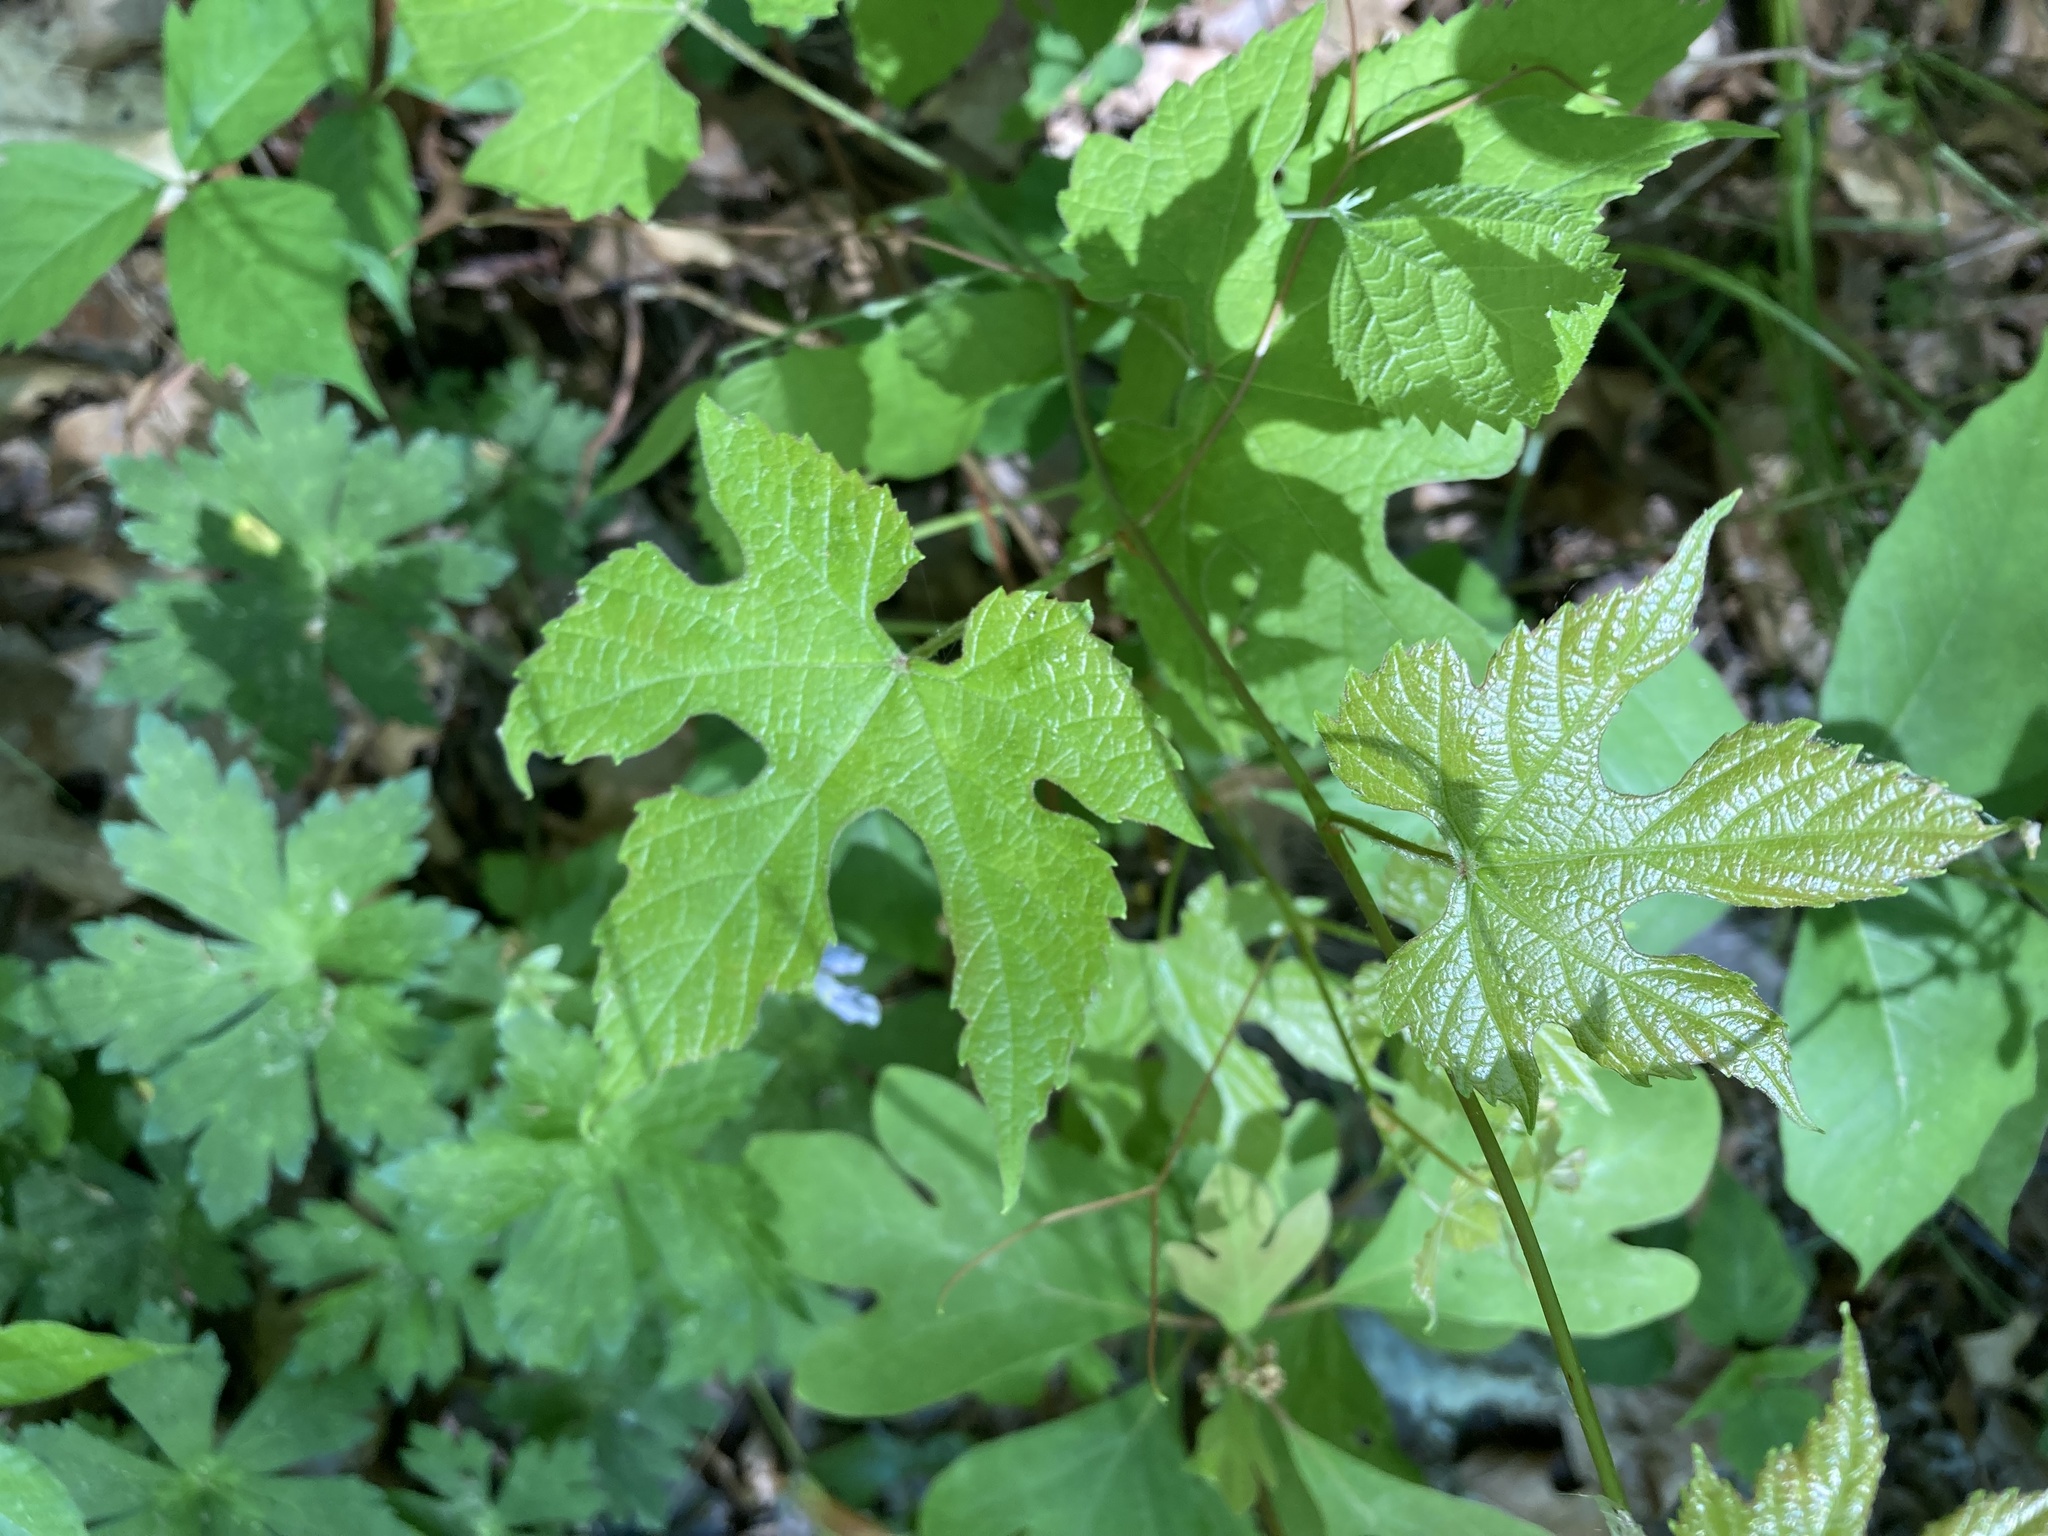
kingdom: Plantae
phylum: Tracheophyta
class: Magnoliopsida
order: Vitales
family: Vitaceae
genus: Vitis
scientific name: Vitis aestivalis
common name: Pigeon grape
